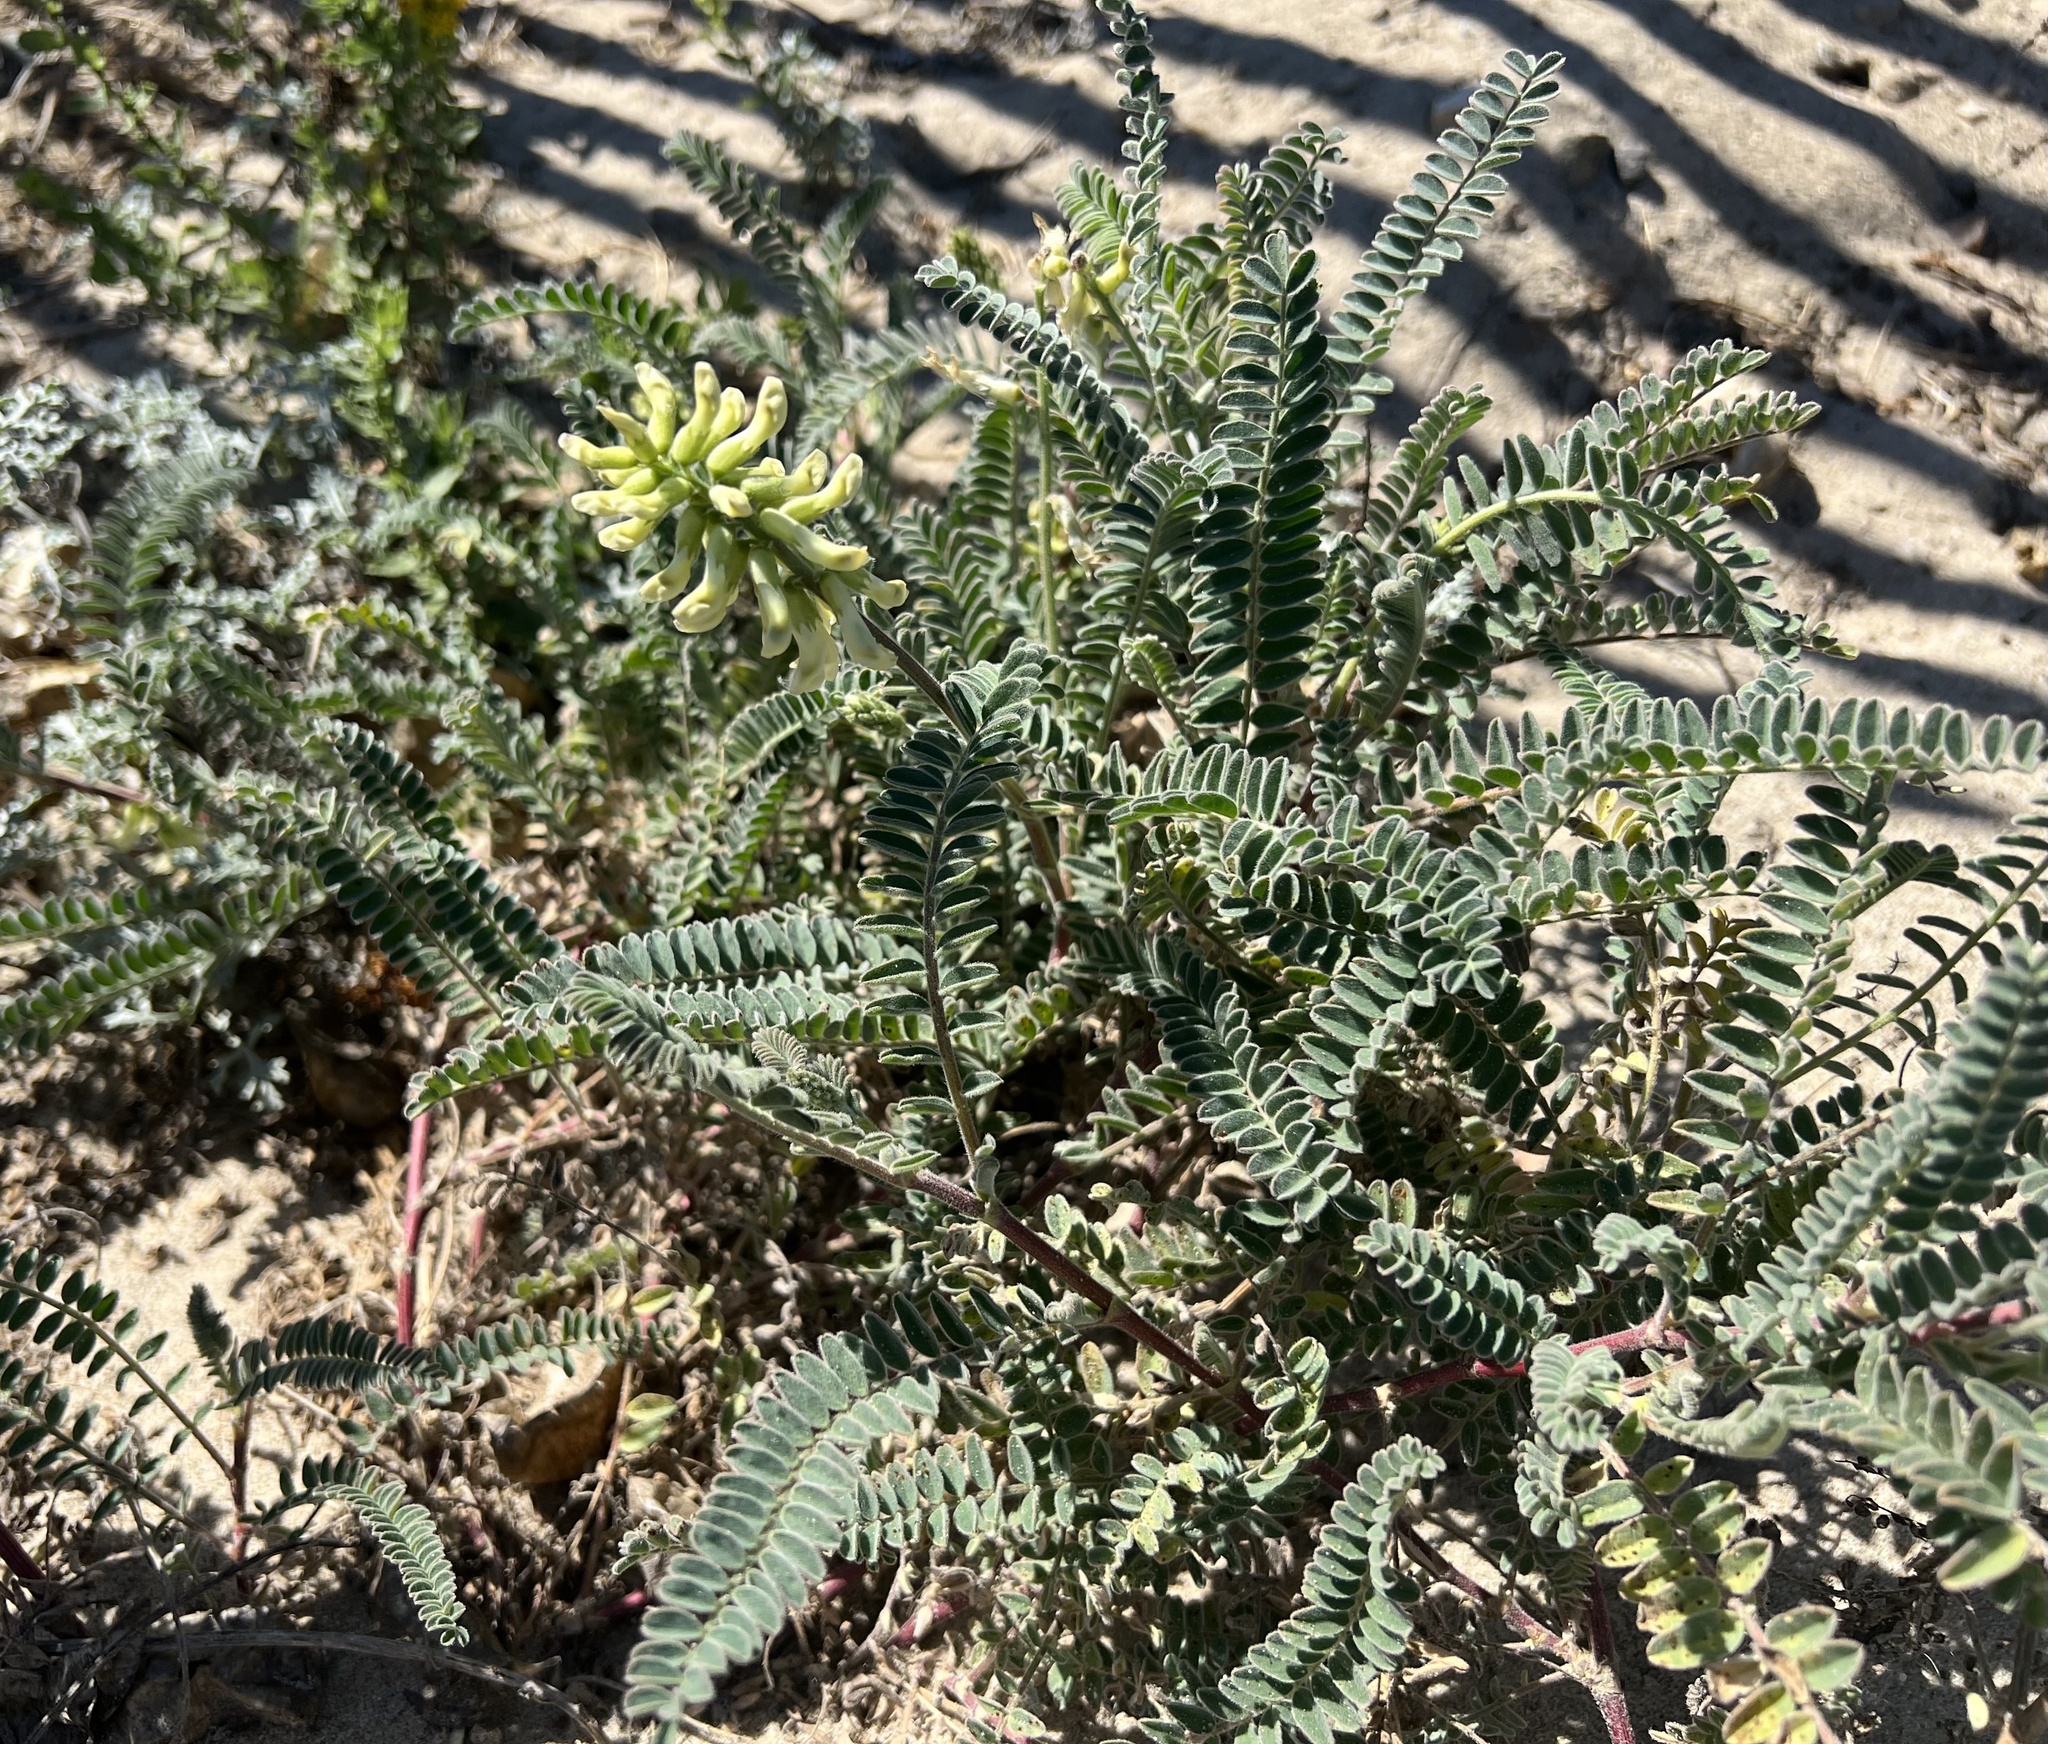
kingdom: Plantae
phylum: Tracheophyta
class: Magnoliopsida
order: Fabales
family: Fabaceae
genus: Astragalus
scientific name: Astragalus nuttallii
